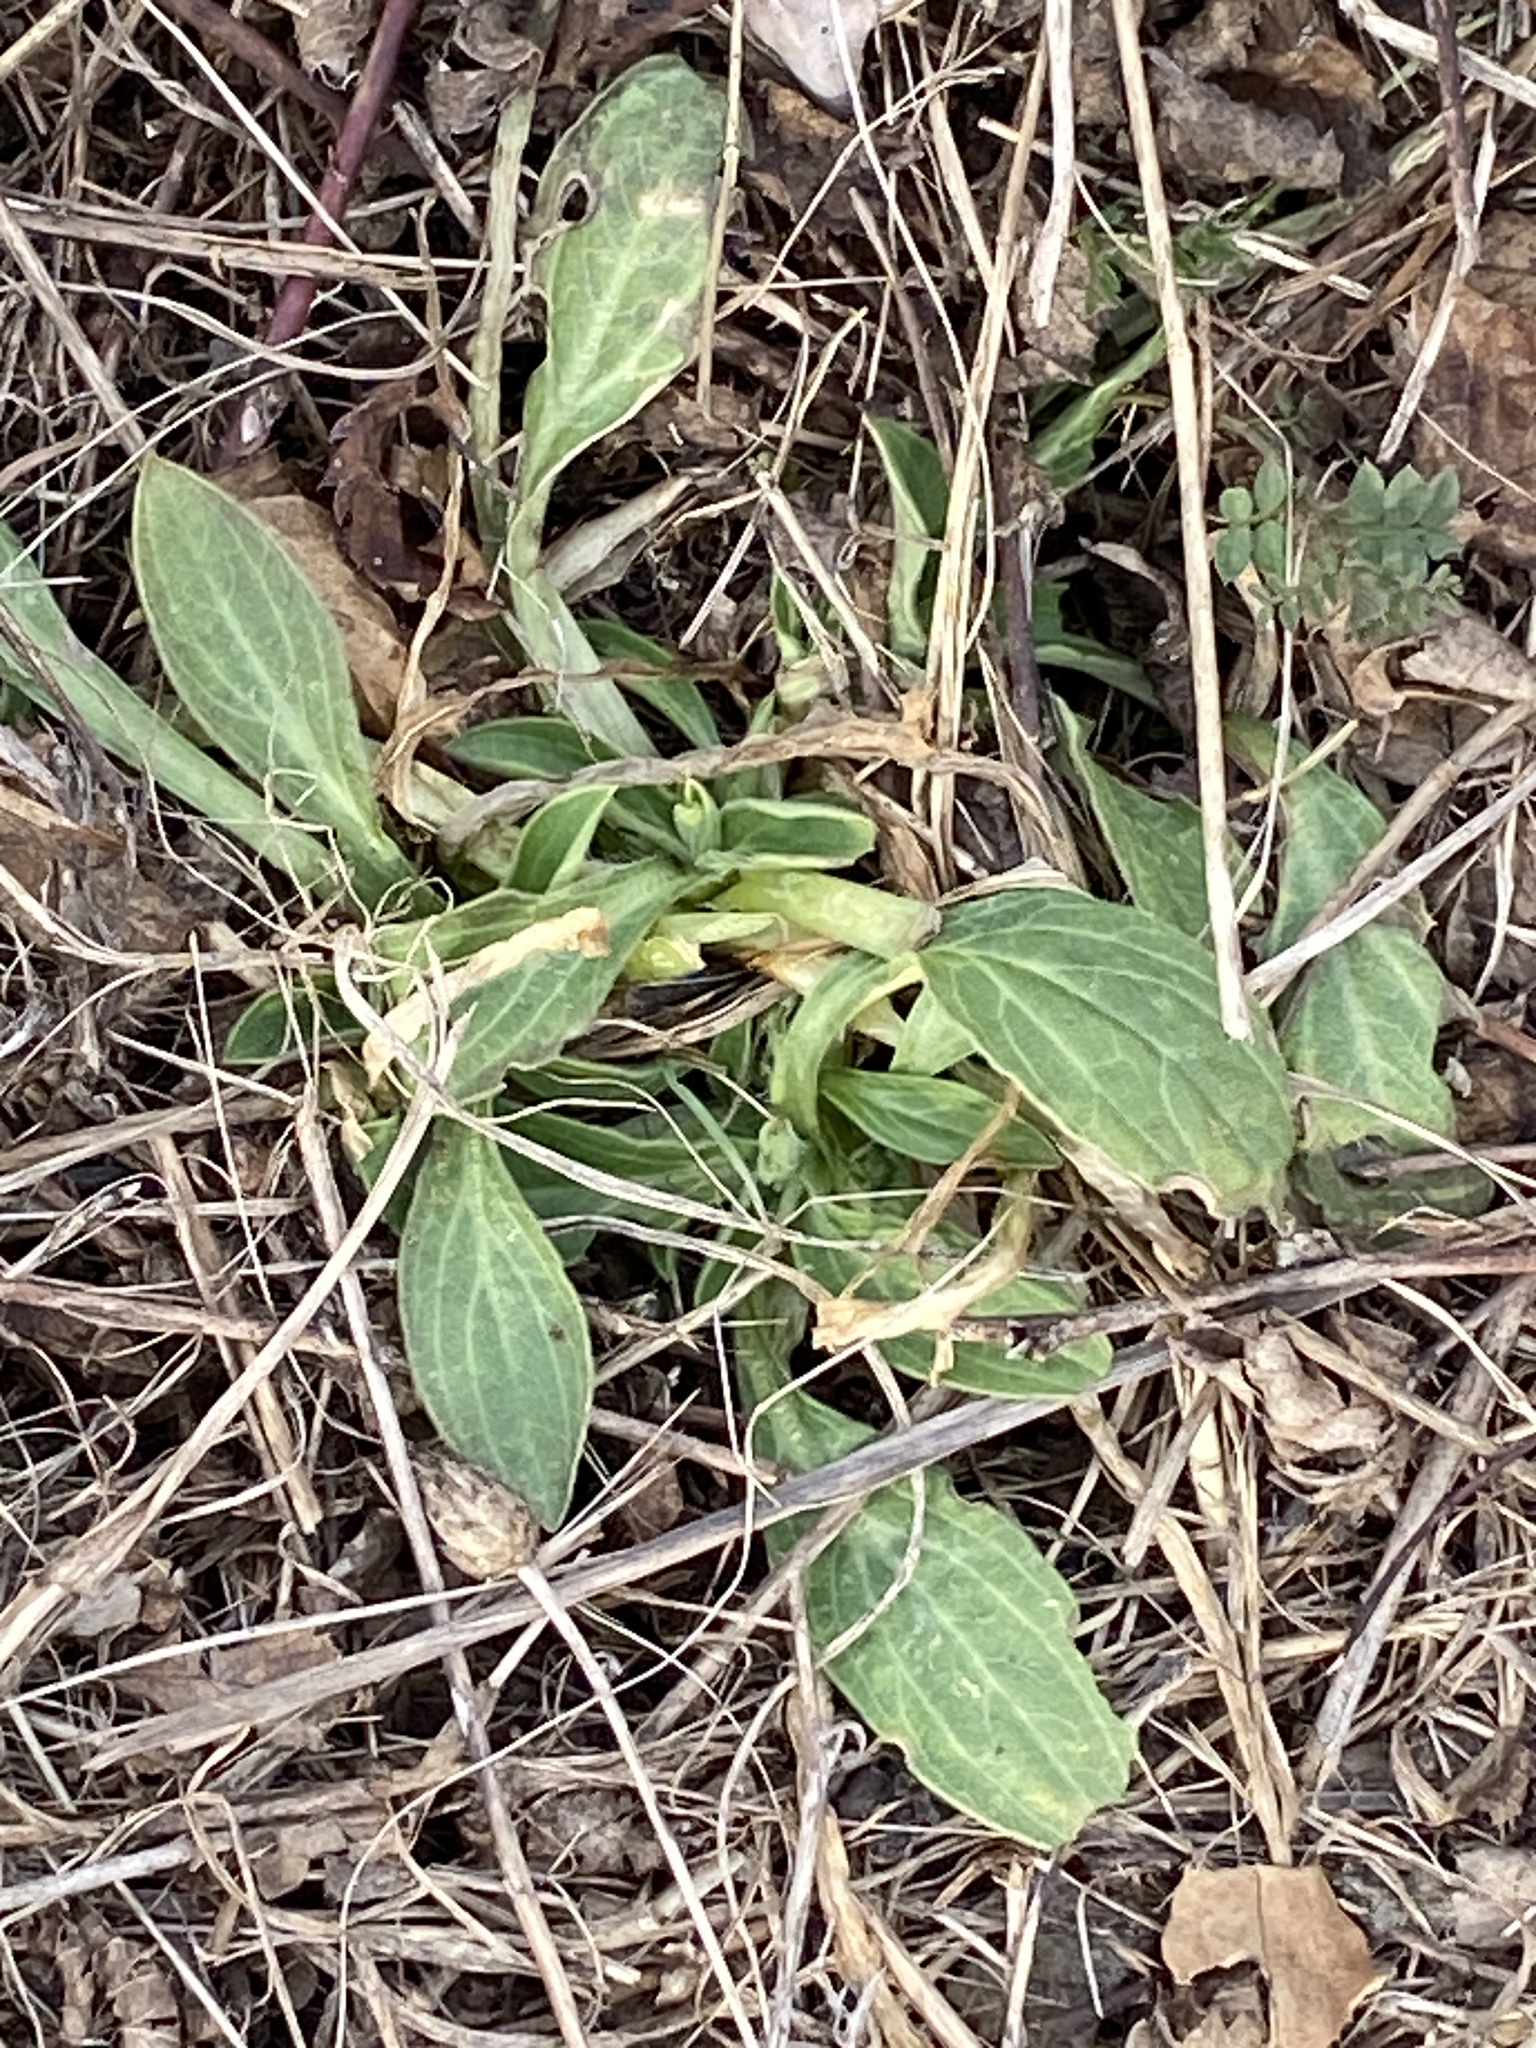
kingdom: Plantae
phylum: Tracheophyta
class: Magnoliopsida
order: Caryophyllales
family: Caryophyllaceae
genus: Silene
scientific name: Silene latifolia
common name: White campion
